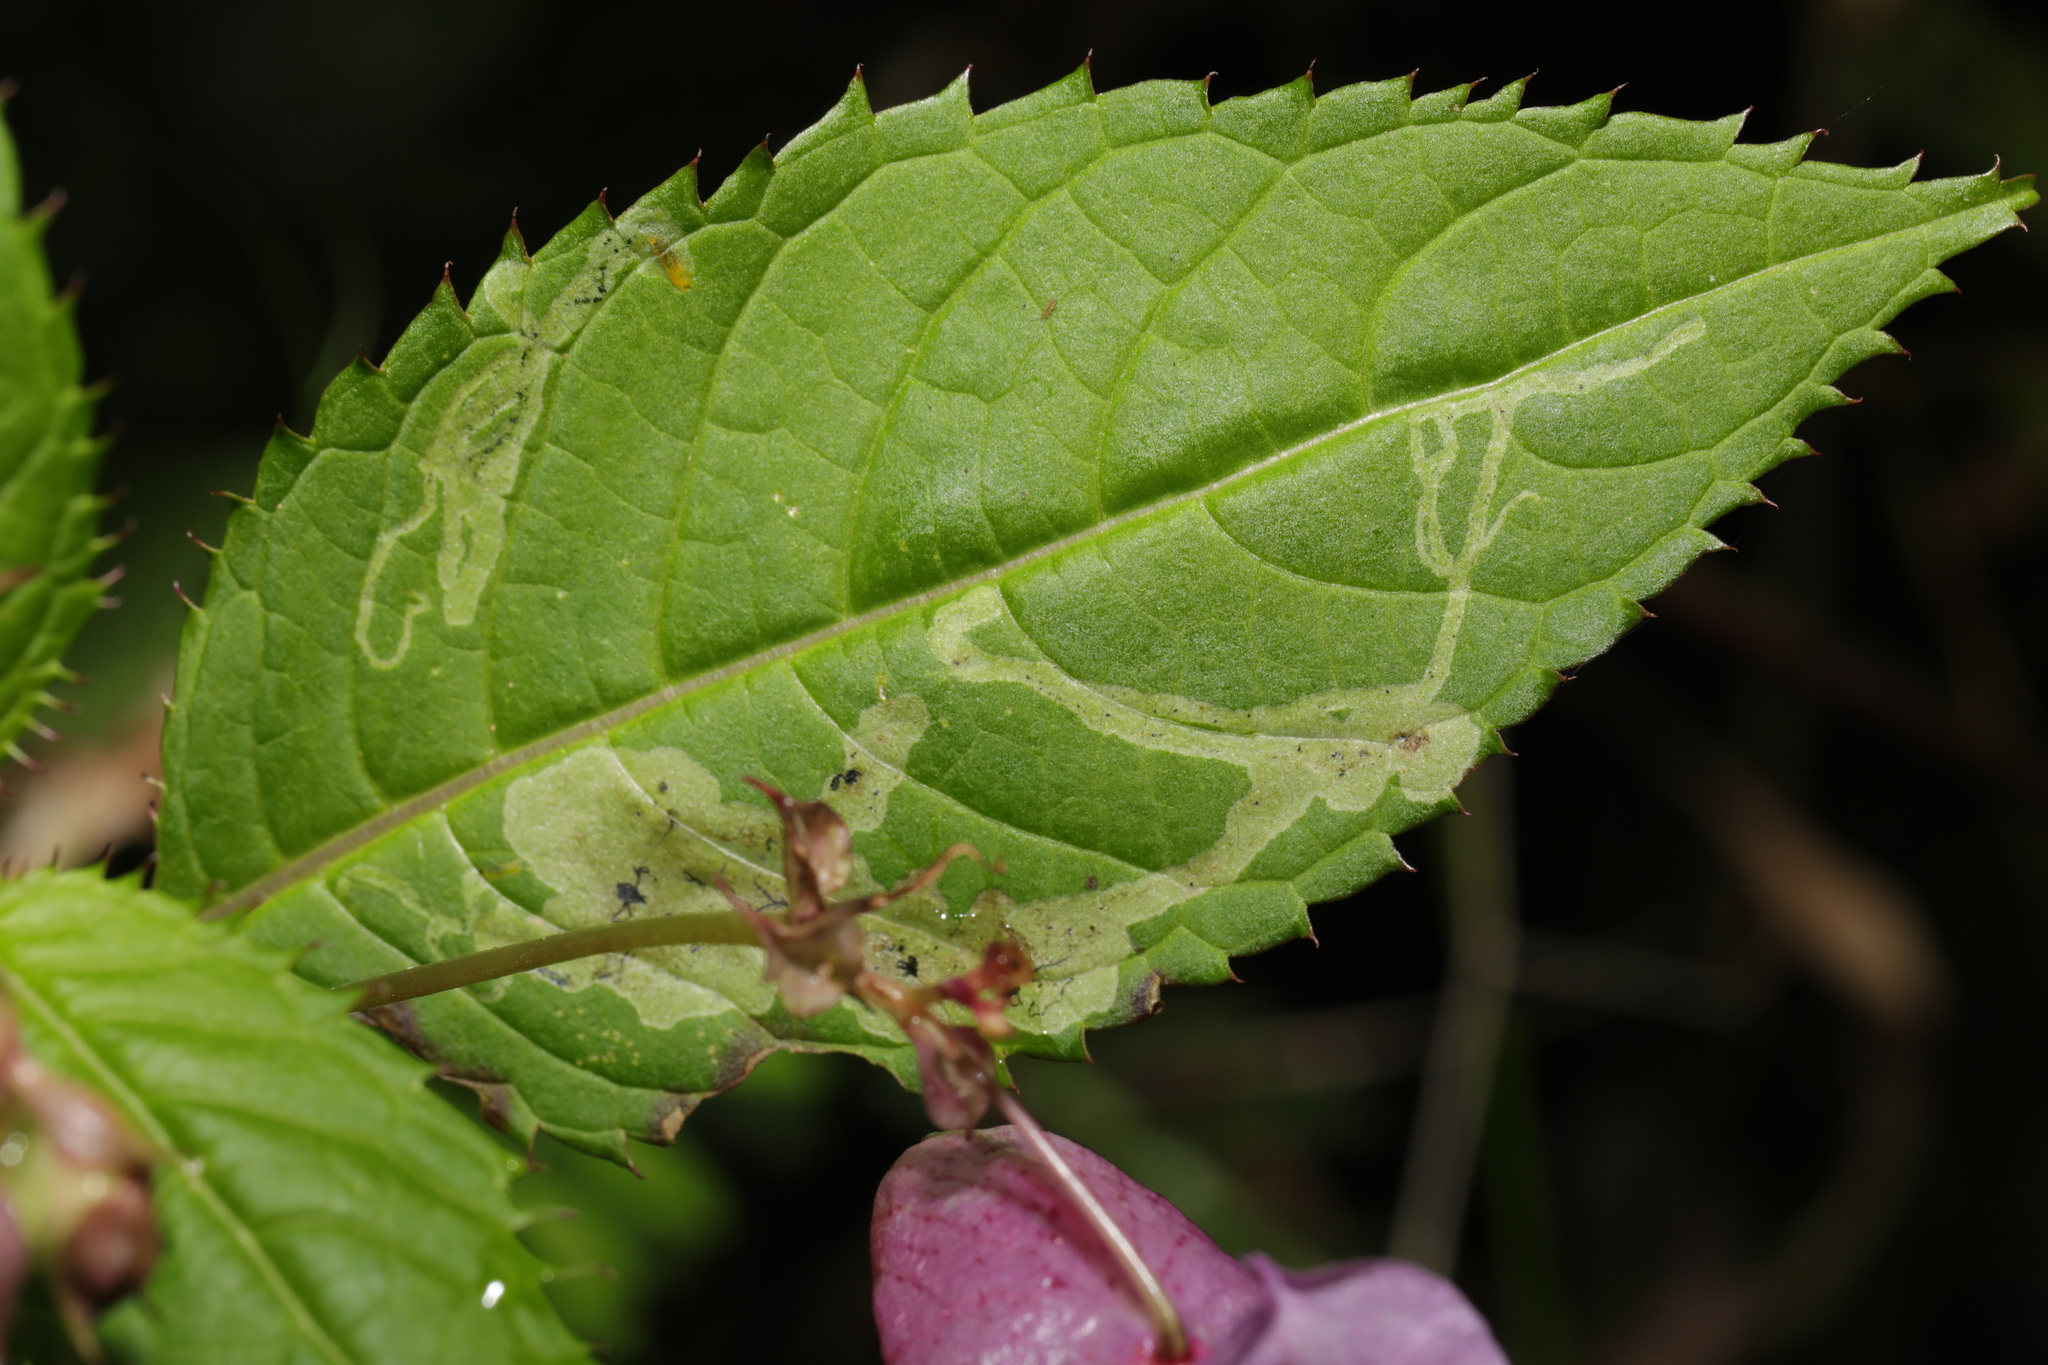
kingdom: Plantae
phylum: Tracheophyta
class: Magnoliopsida
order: Ericales
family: Balsaminaceae
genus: Impatiens
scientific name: Impatiens glandulifera
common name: Himalayan balsam
